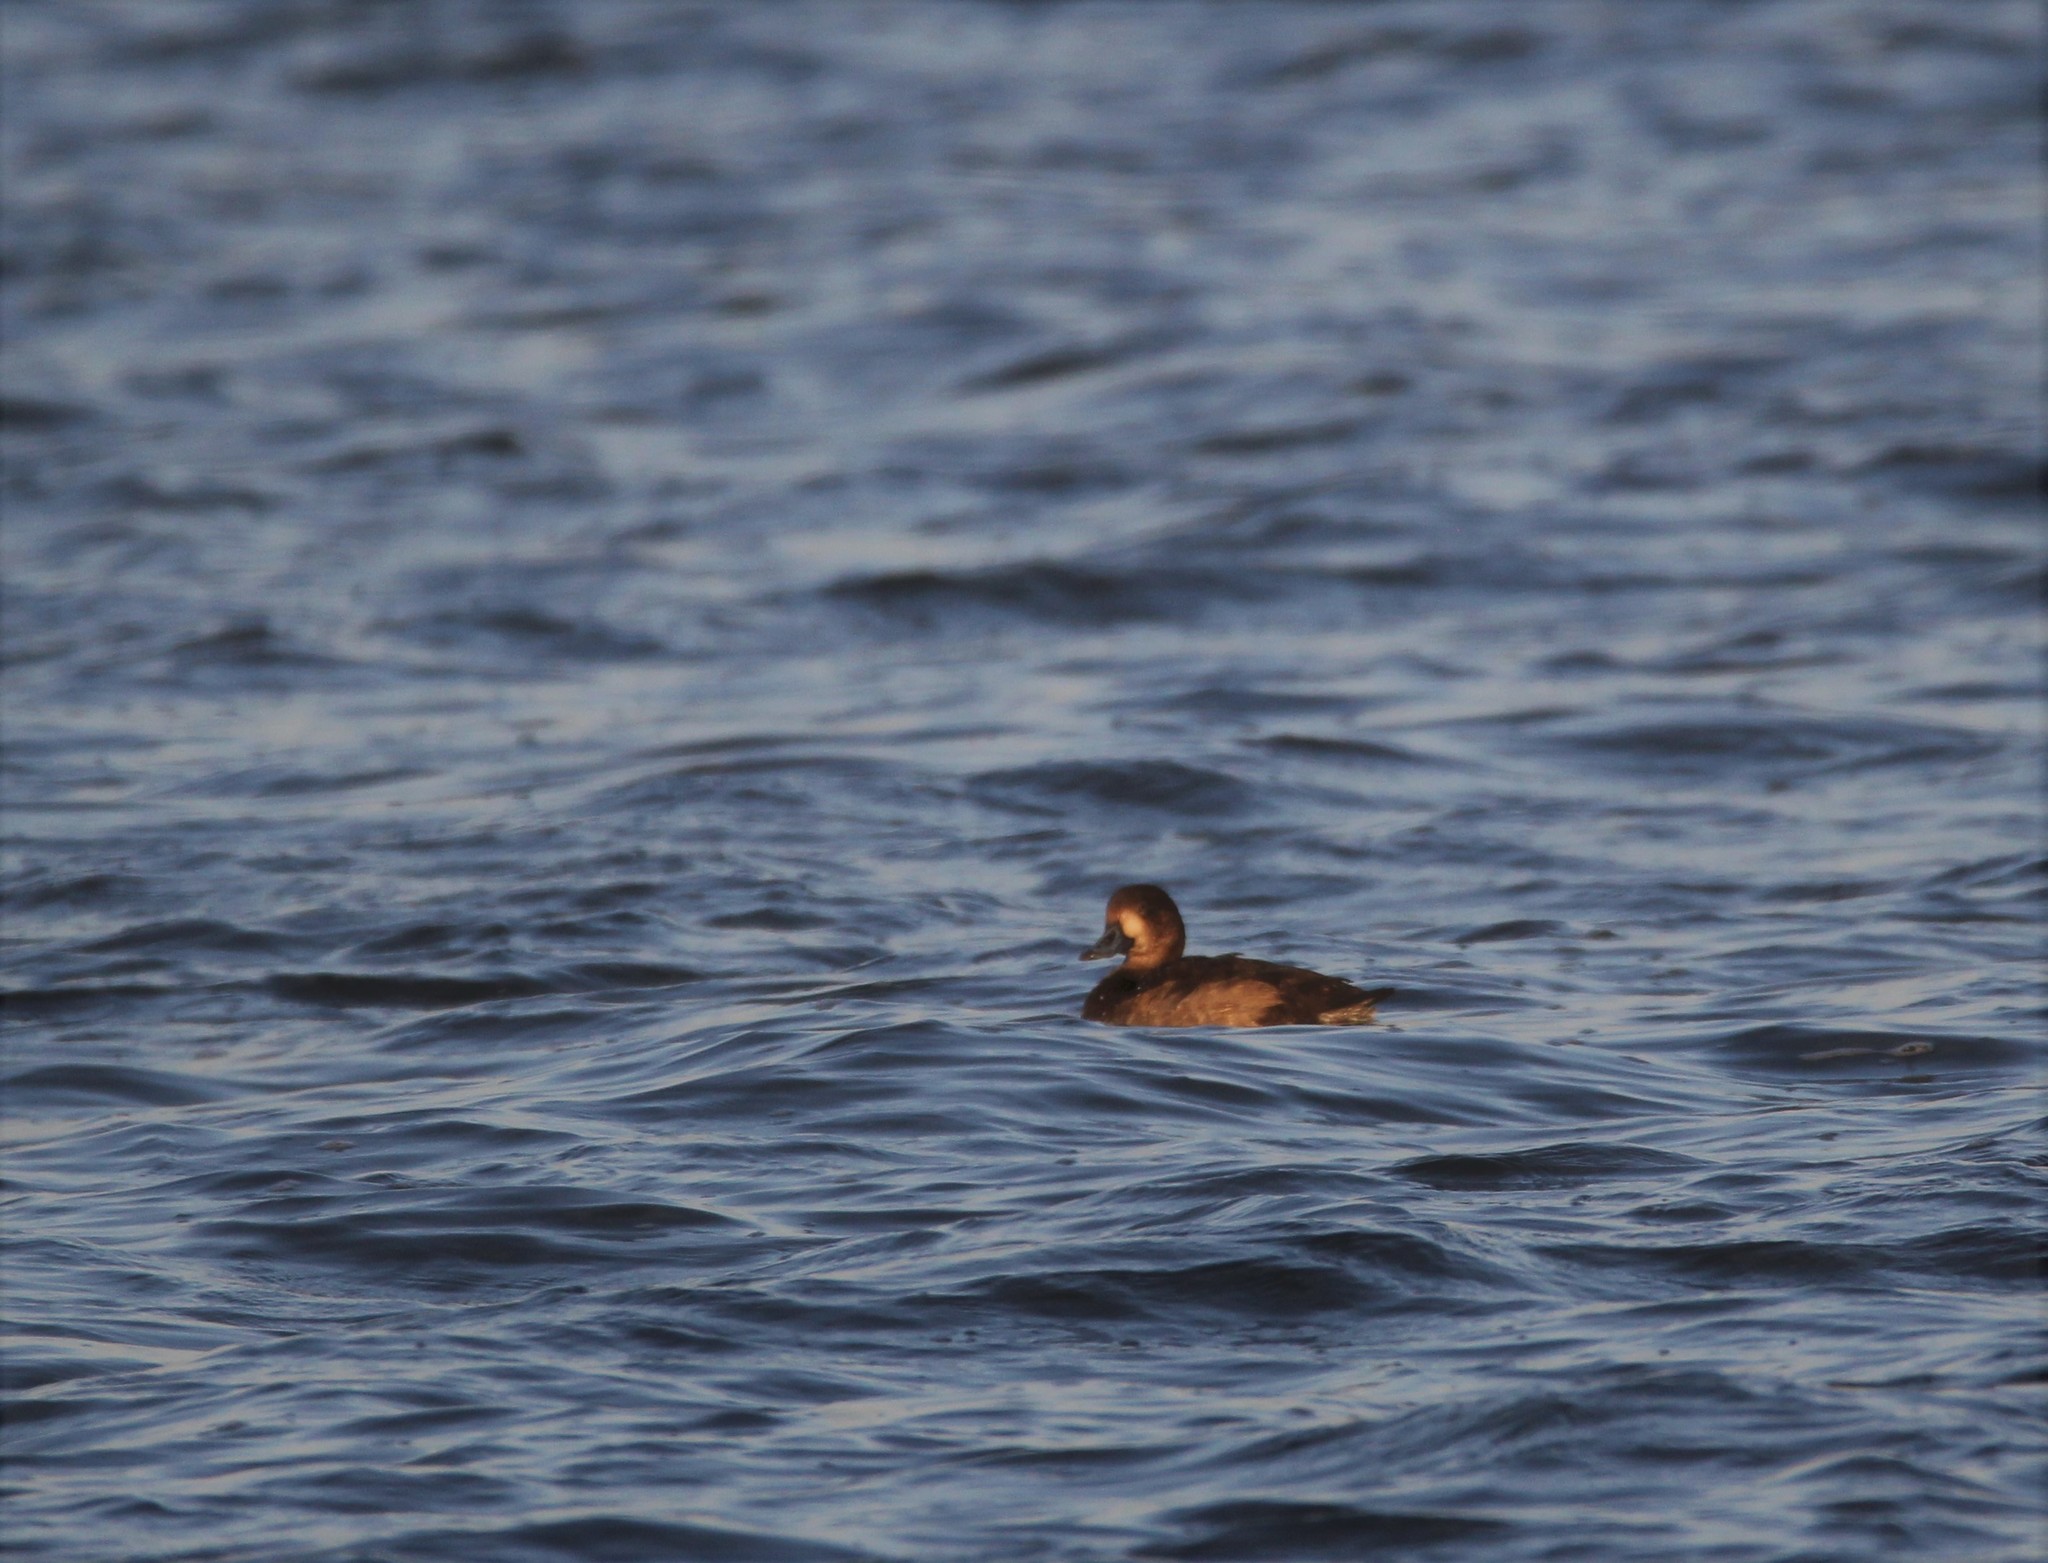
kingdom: Animalia
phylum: Chordata
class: Aves
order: Anseriformes
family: Anatidae
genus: Aythya
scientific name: Aythya americana
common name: Redhead
